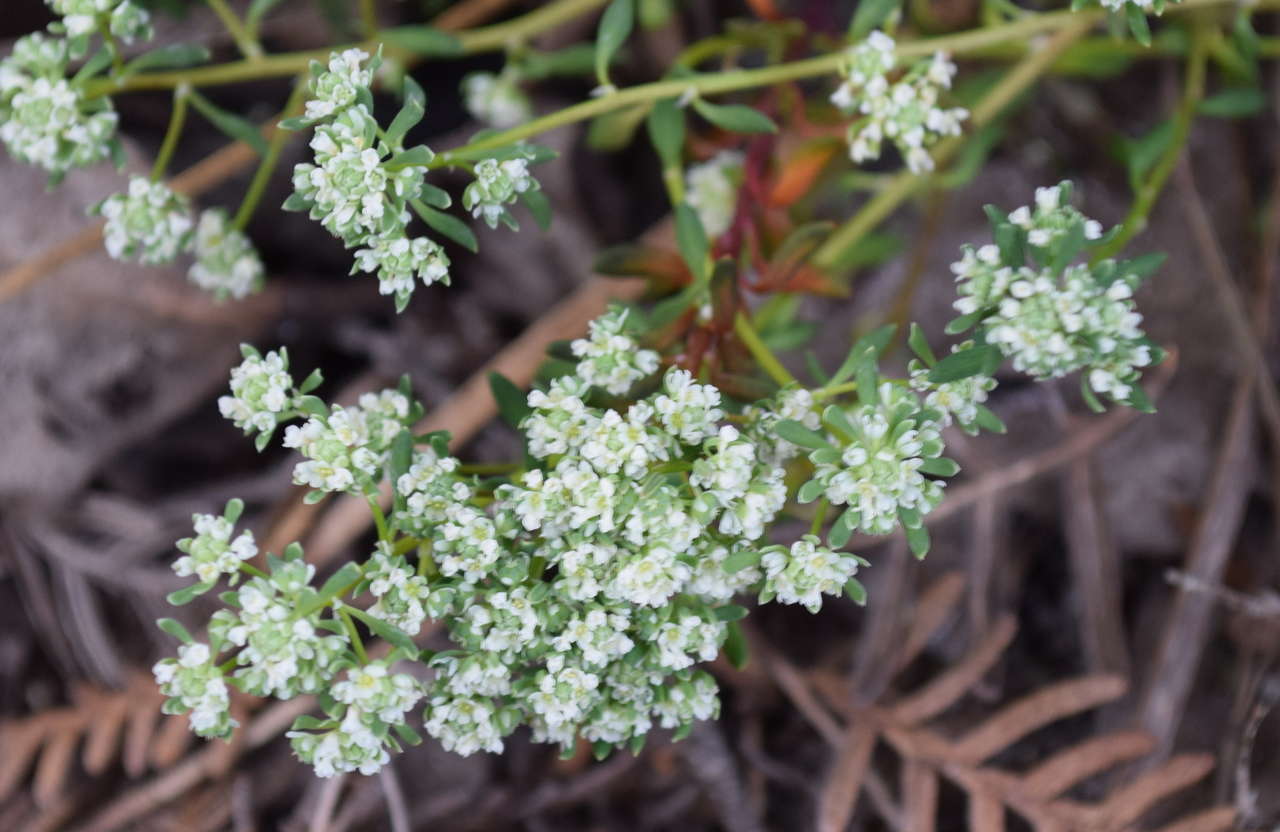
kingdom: Plantae
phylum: Tracheophyta
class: Magnoliopsida
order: Malpighiales
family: Phyllanthaceae
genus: Poranthera
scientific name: Poranthera microphylla
